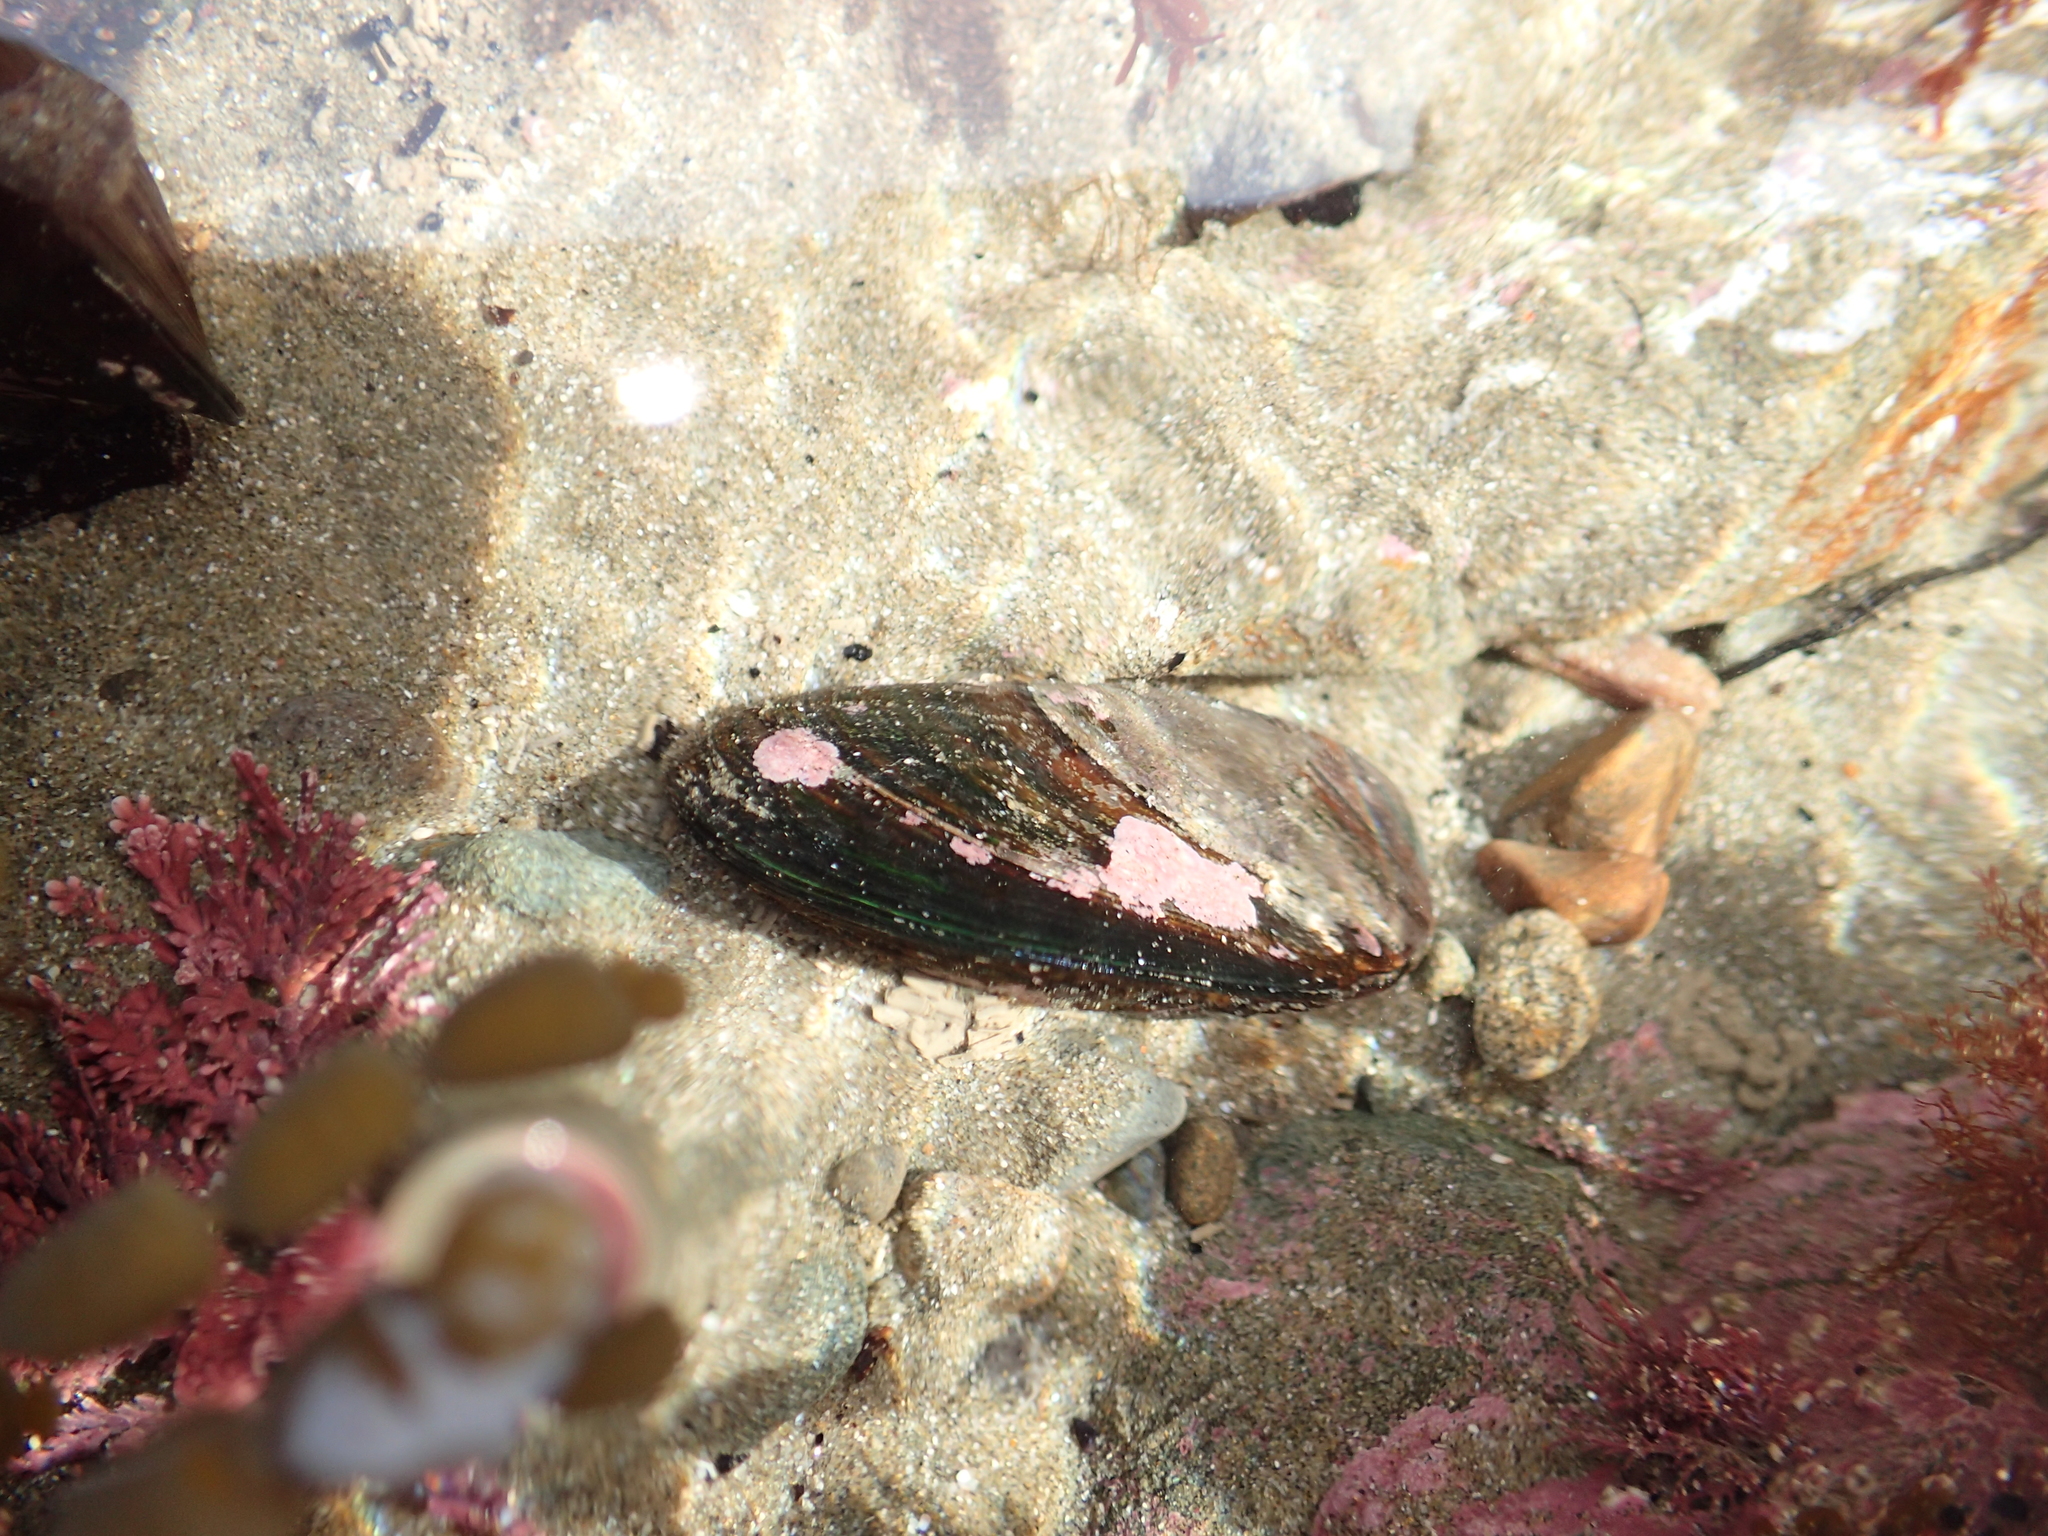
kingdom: Animalia
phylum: Mollusca
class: Bivalvia
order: Mytilida
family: Mytilidae
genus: Perna
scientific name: Perna canaliculus
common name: New zealand greenshelltm
